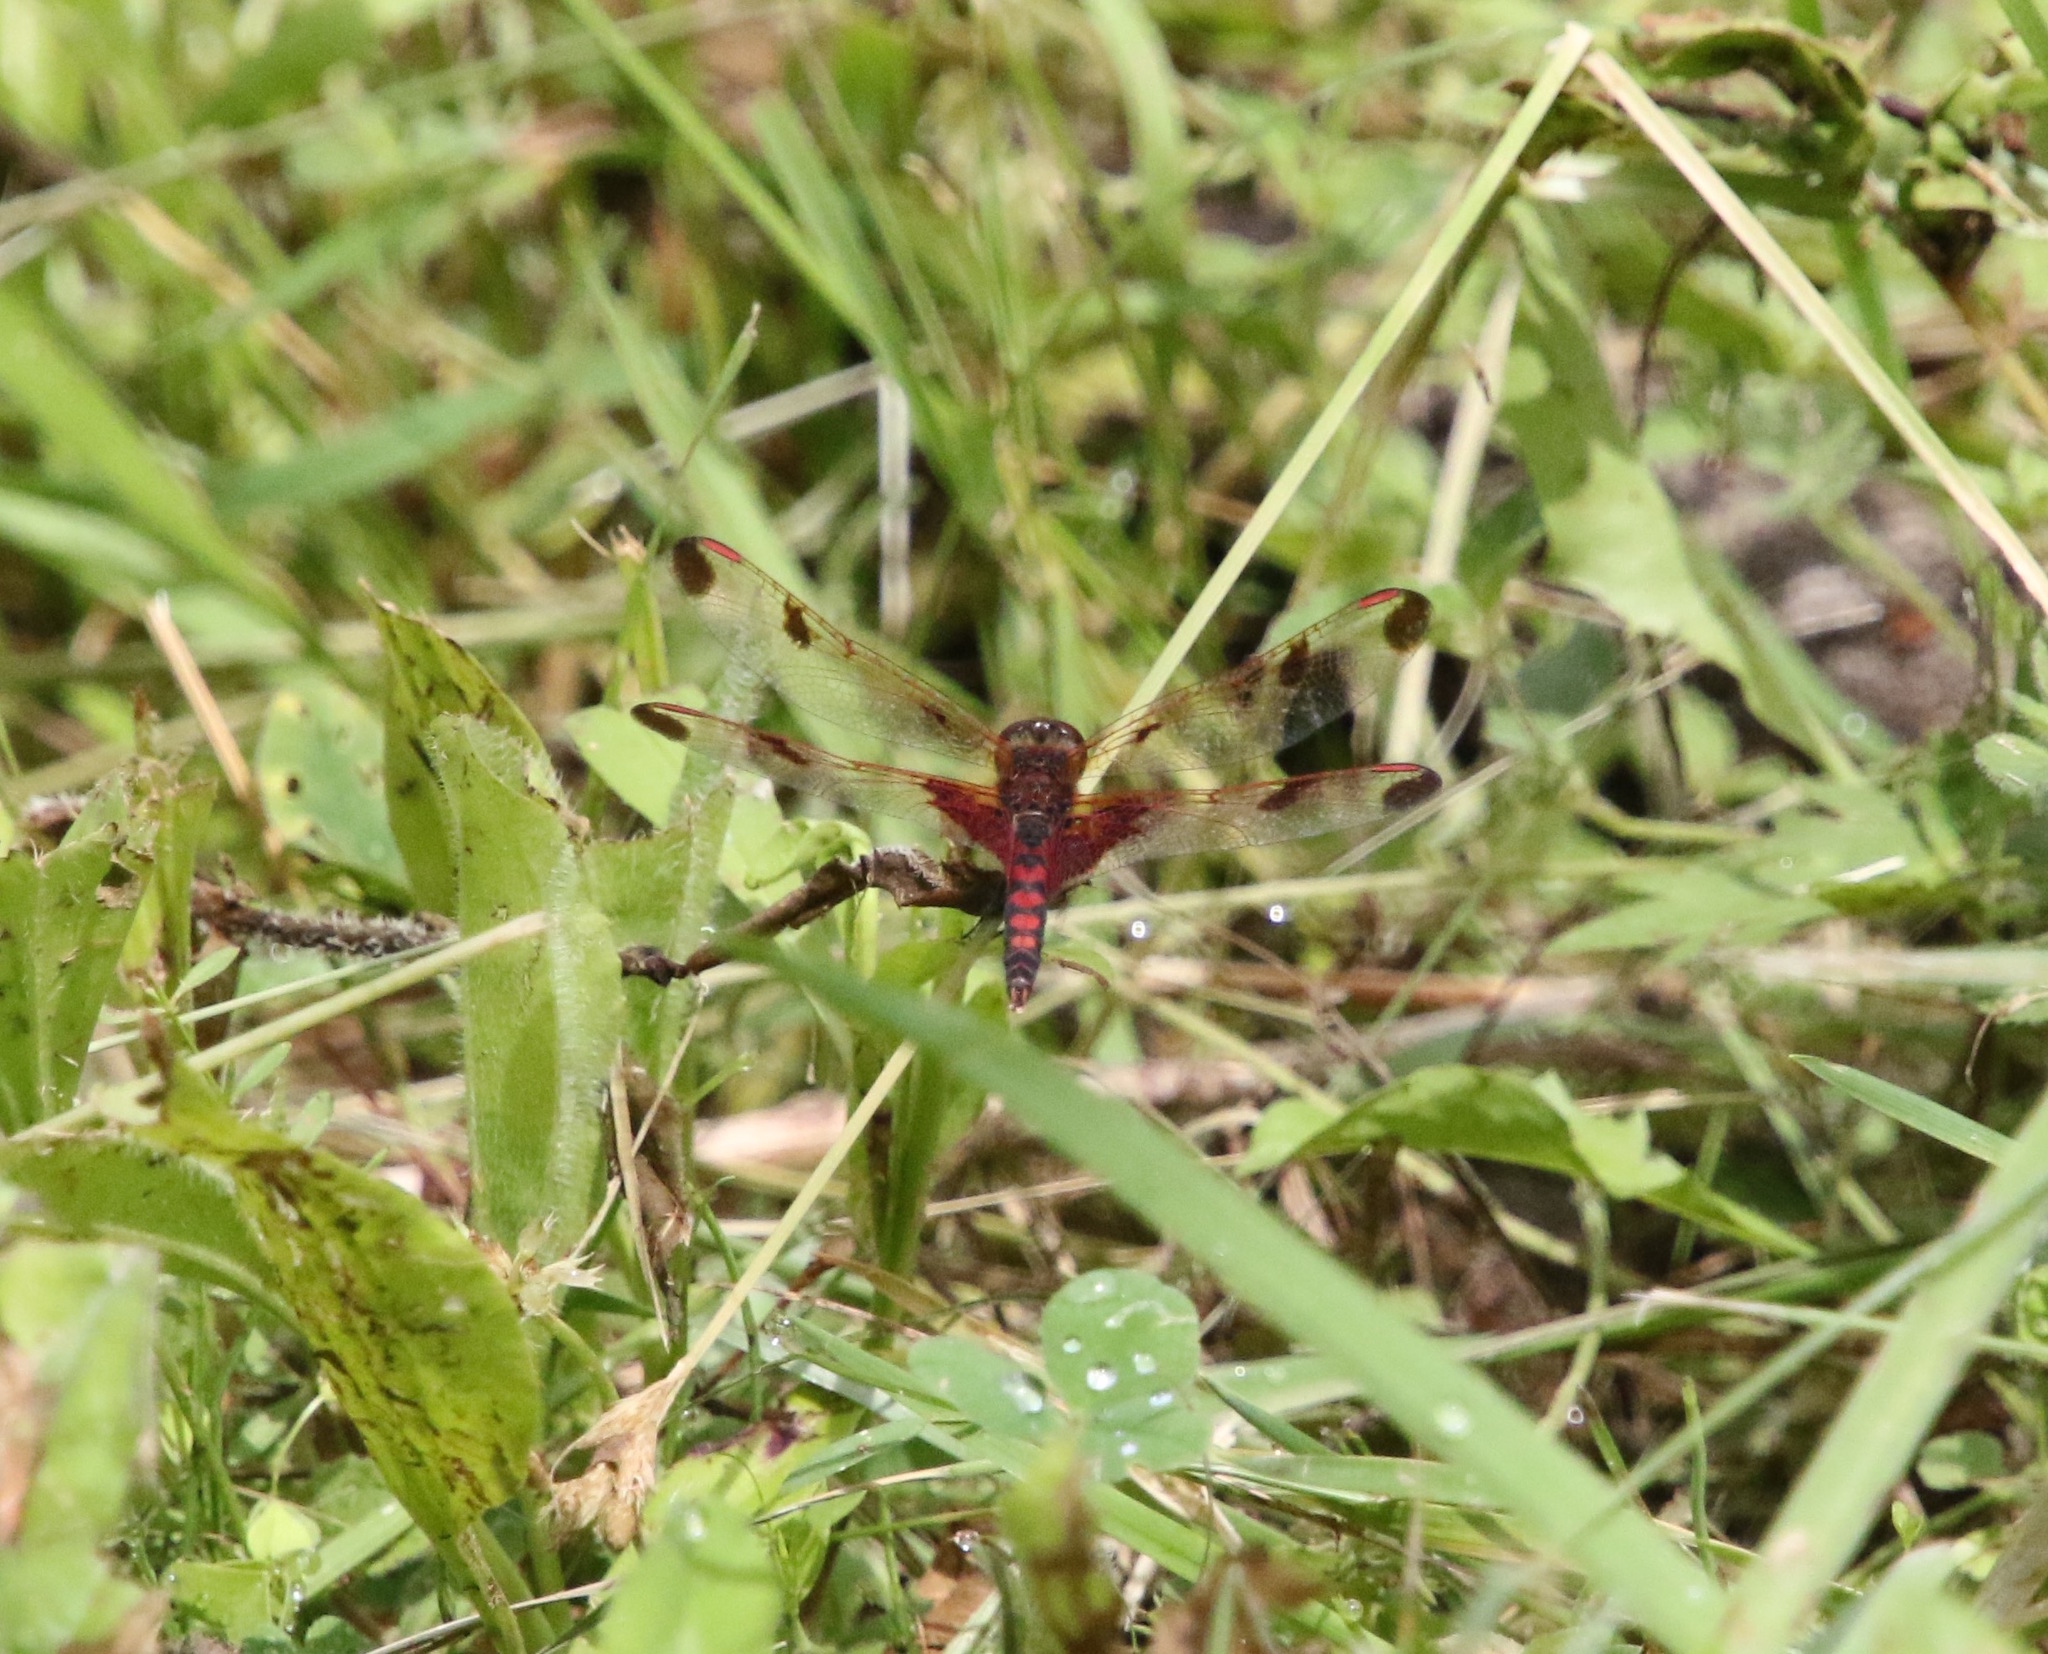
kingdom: Animalia
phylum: Arthropoda
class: Insecta
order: Odonata
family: Libellulidae
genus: Celithemis
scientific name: Celithemis elisa
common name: Calico pennant
